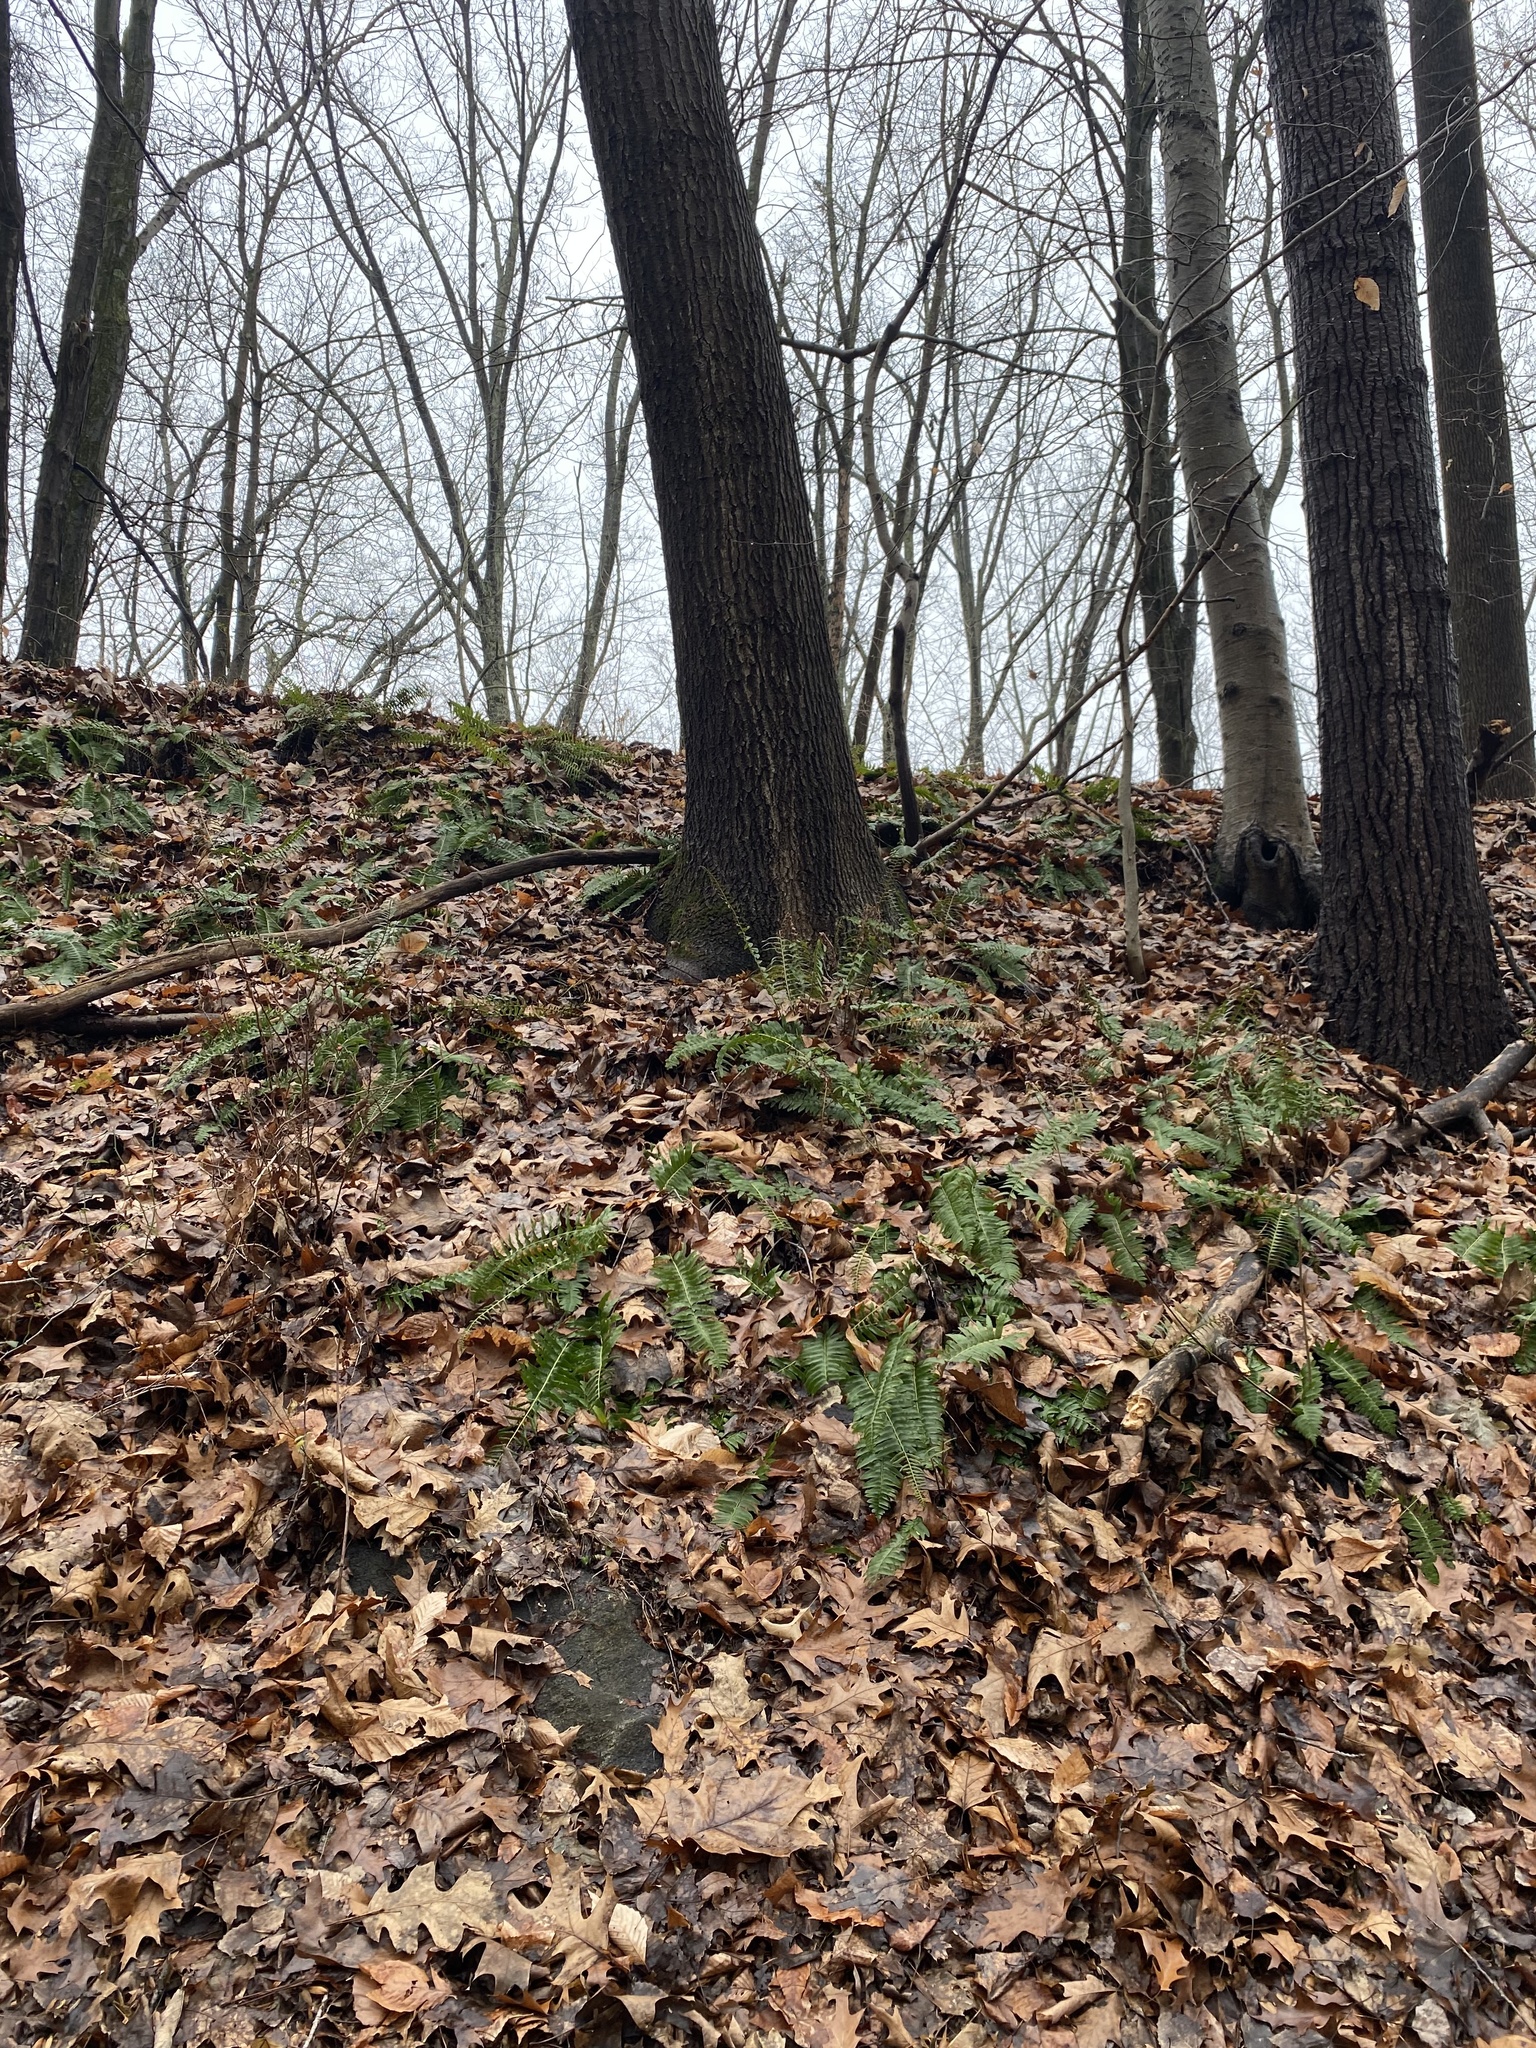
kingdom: Plantae
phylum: Tracheophyta
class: Polypodiopsida
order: Polypodiales
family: Dryopteridaceae
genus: Polystichum
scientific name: Polystichum acrostichoides
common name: Christmas fern
